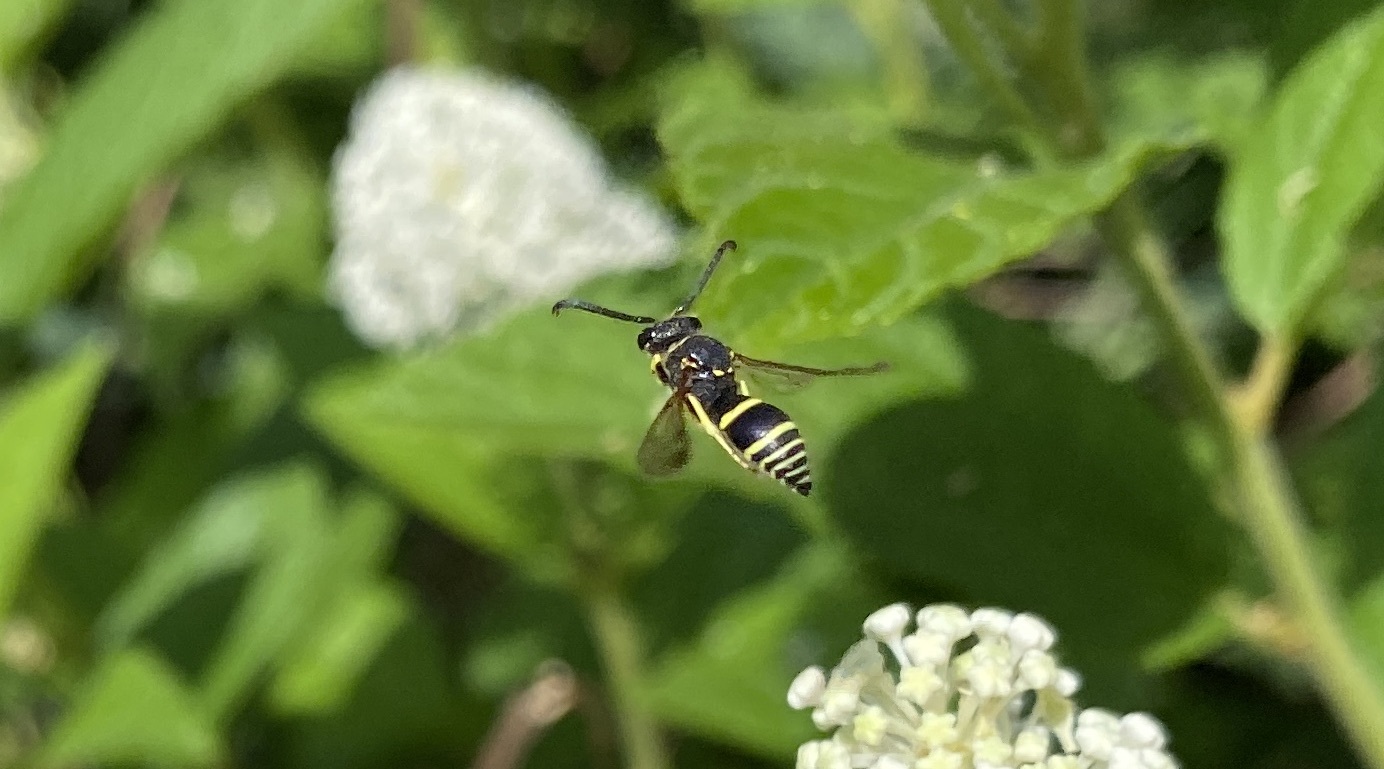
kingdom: Animalia
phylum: Arthropoda
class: Insecta
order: Hymenoptera
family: Vespidae
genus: Ancistrocerus
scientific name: Ancistrocerus
